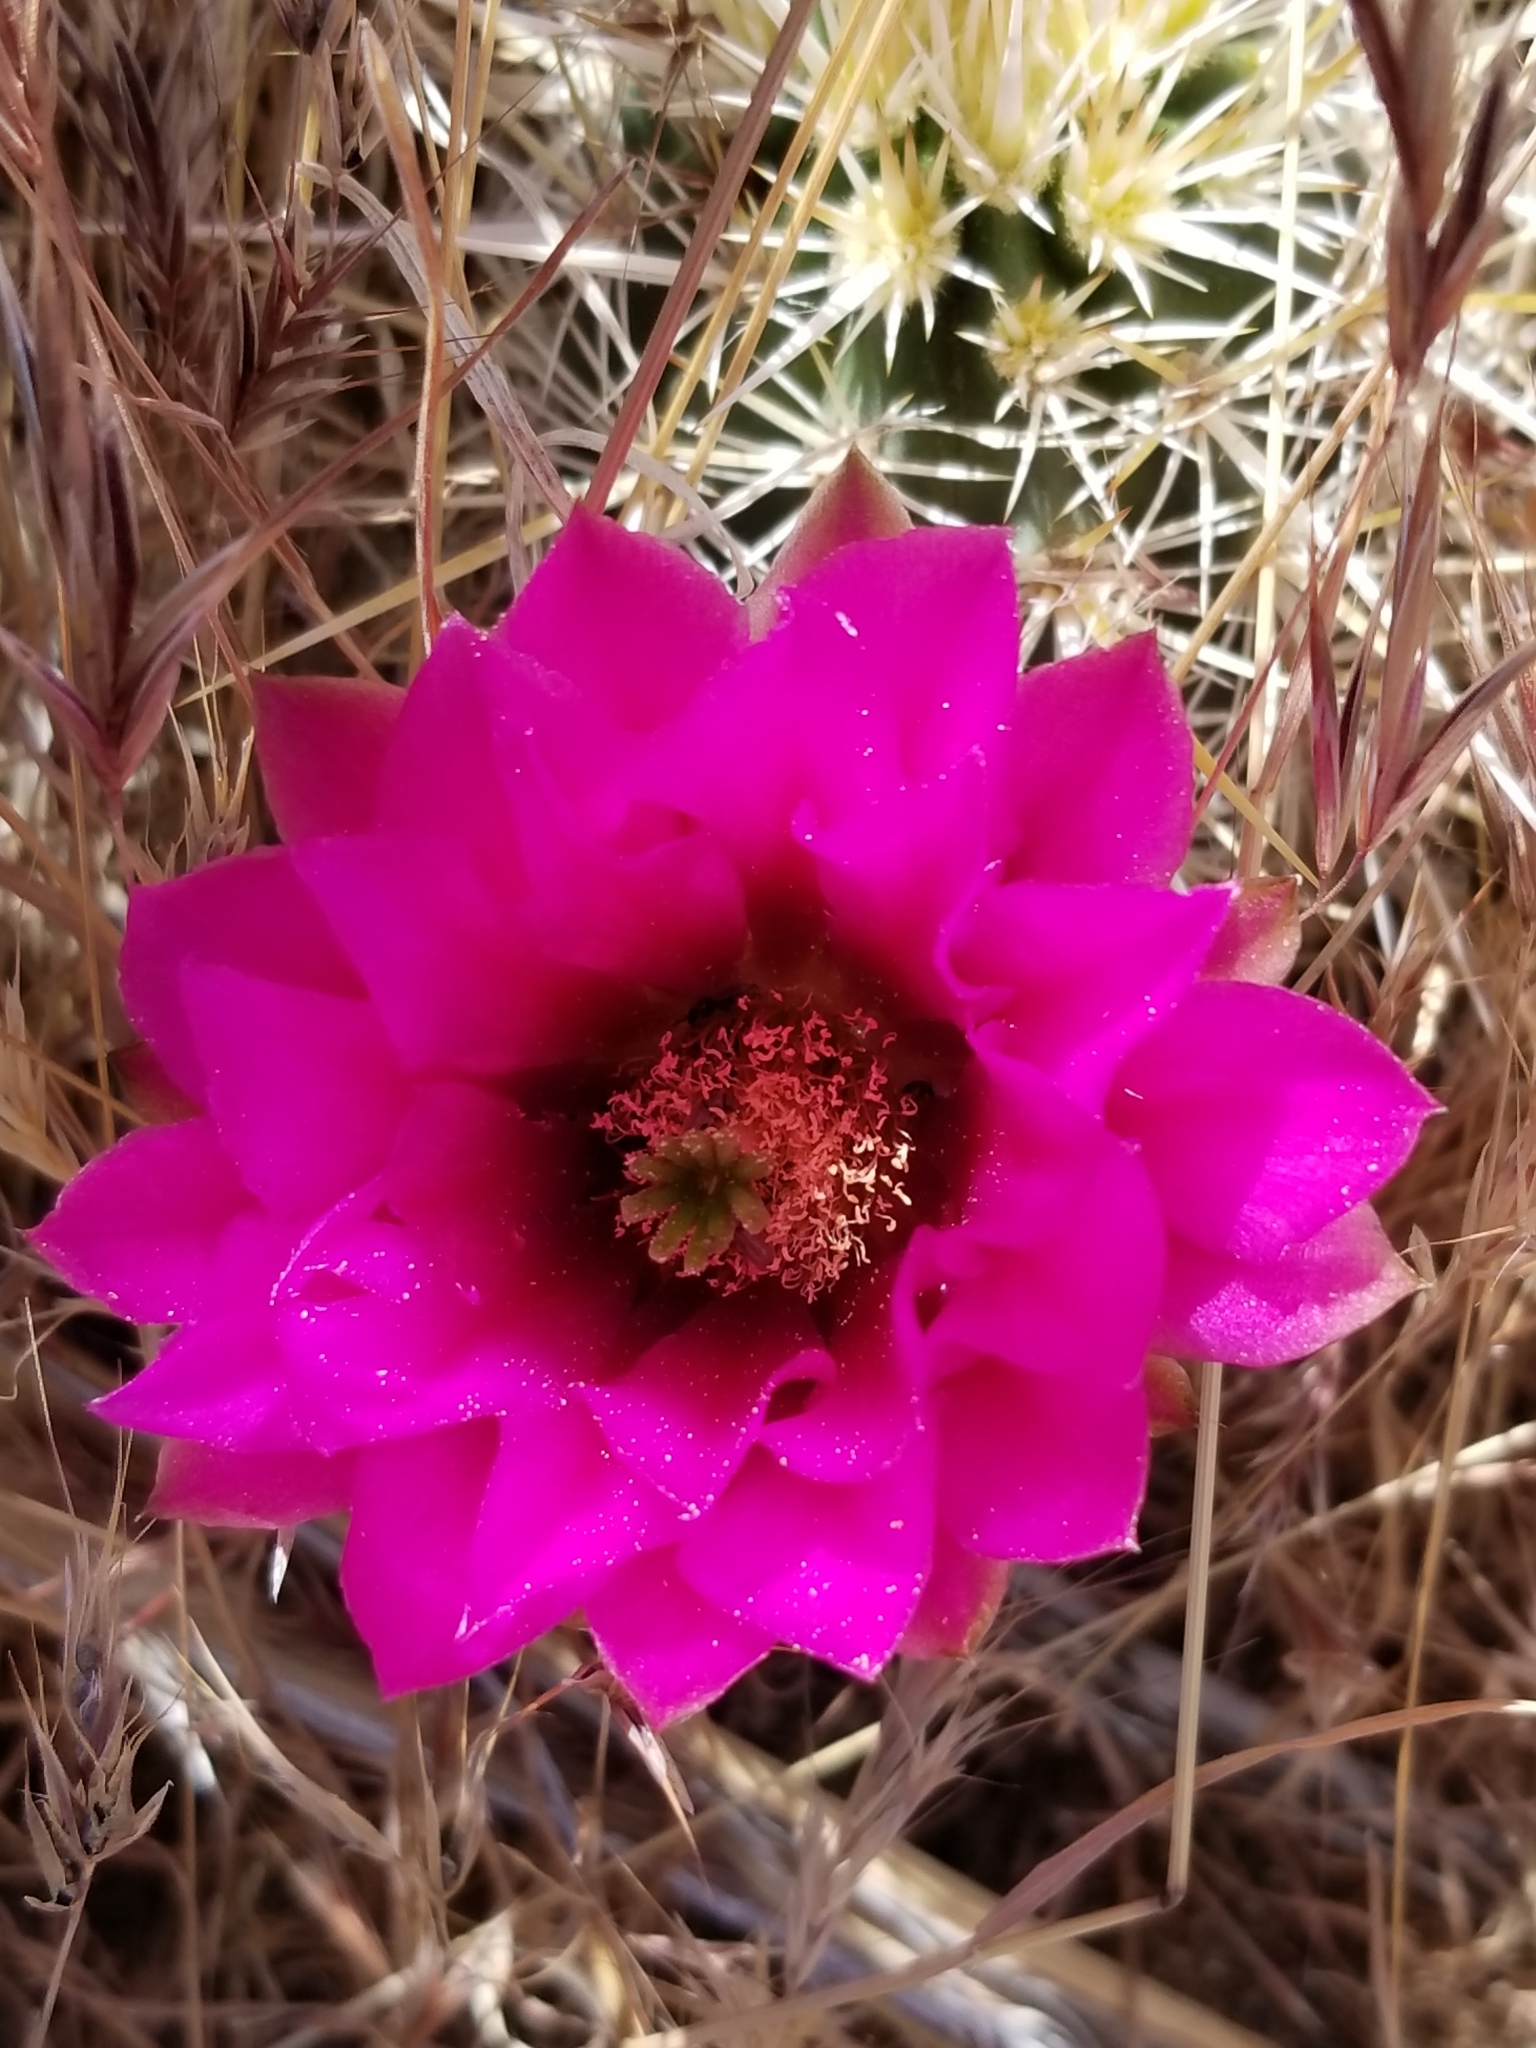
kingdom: Plantae
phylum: Tracheophyta
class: Magnoliopsida
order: Caryophyllales
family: Cactaceae
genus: Echinocereus
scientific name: Echinocereus engelmannii
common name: Engelmann's hedgehog cactus
